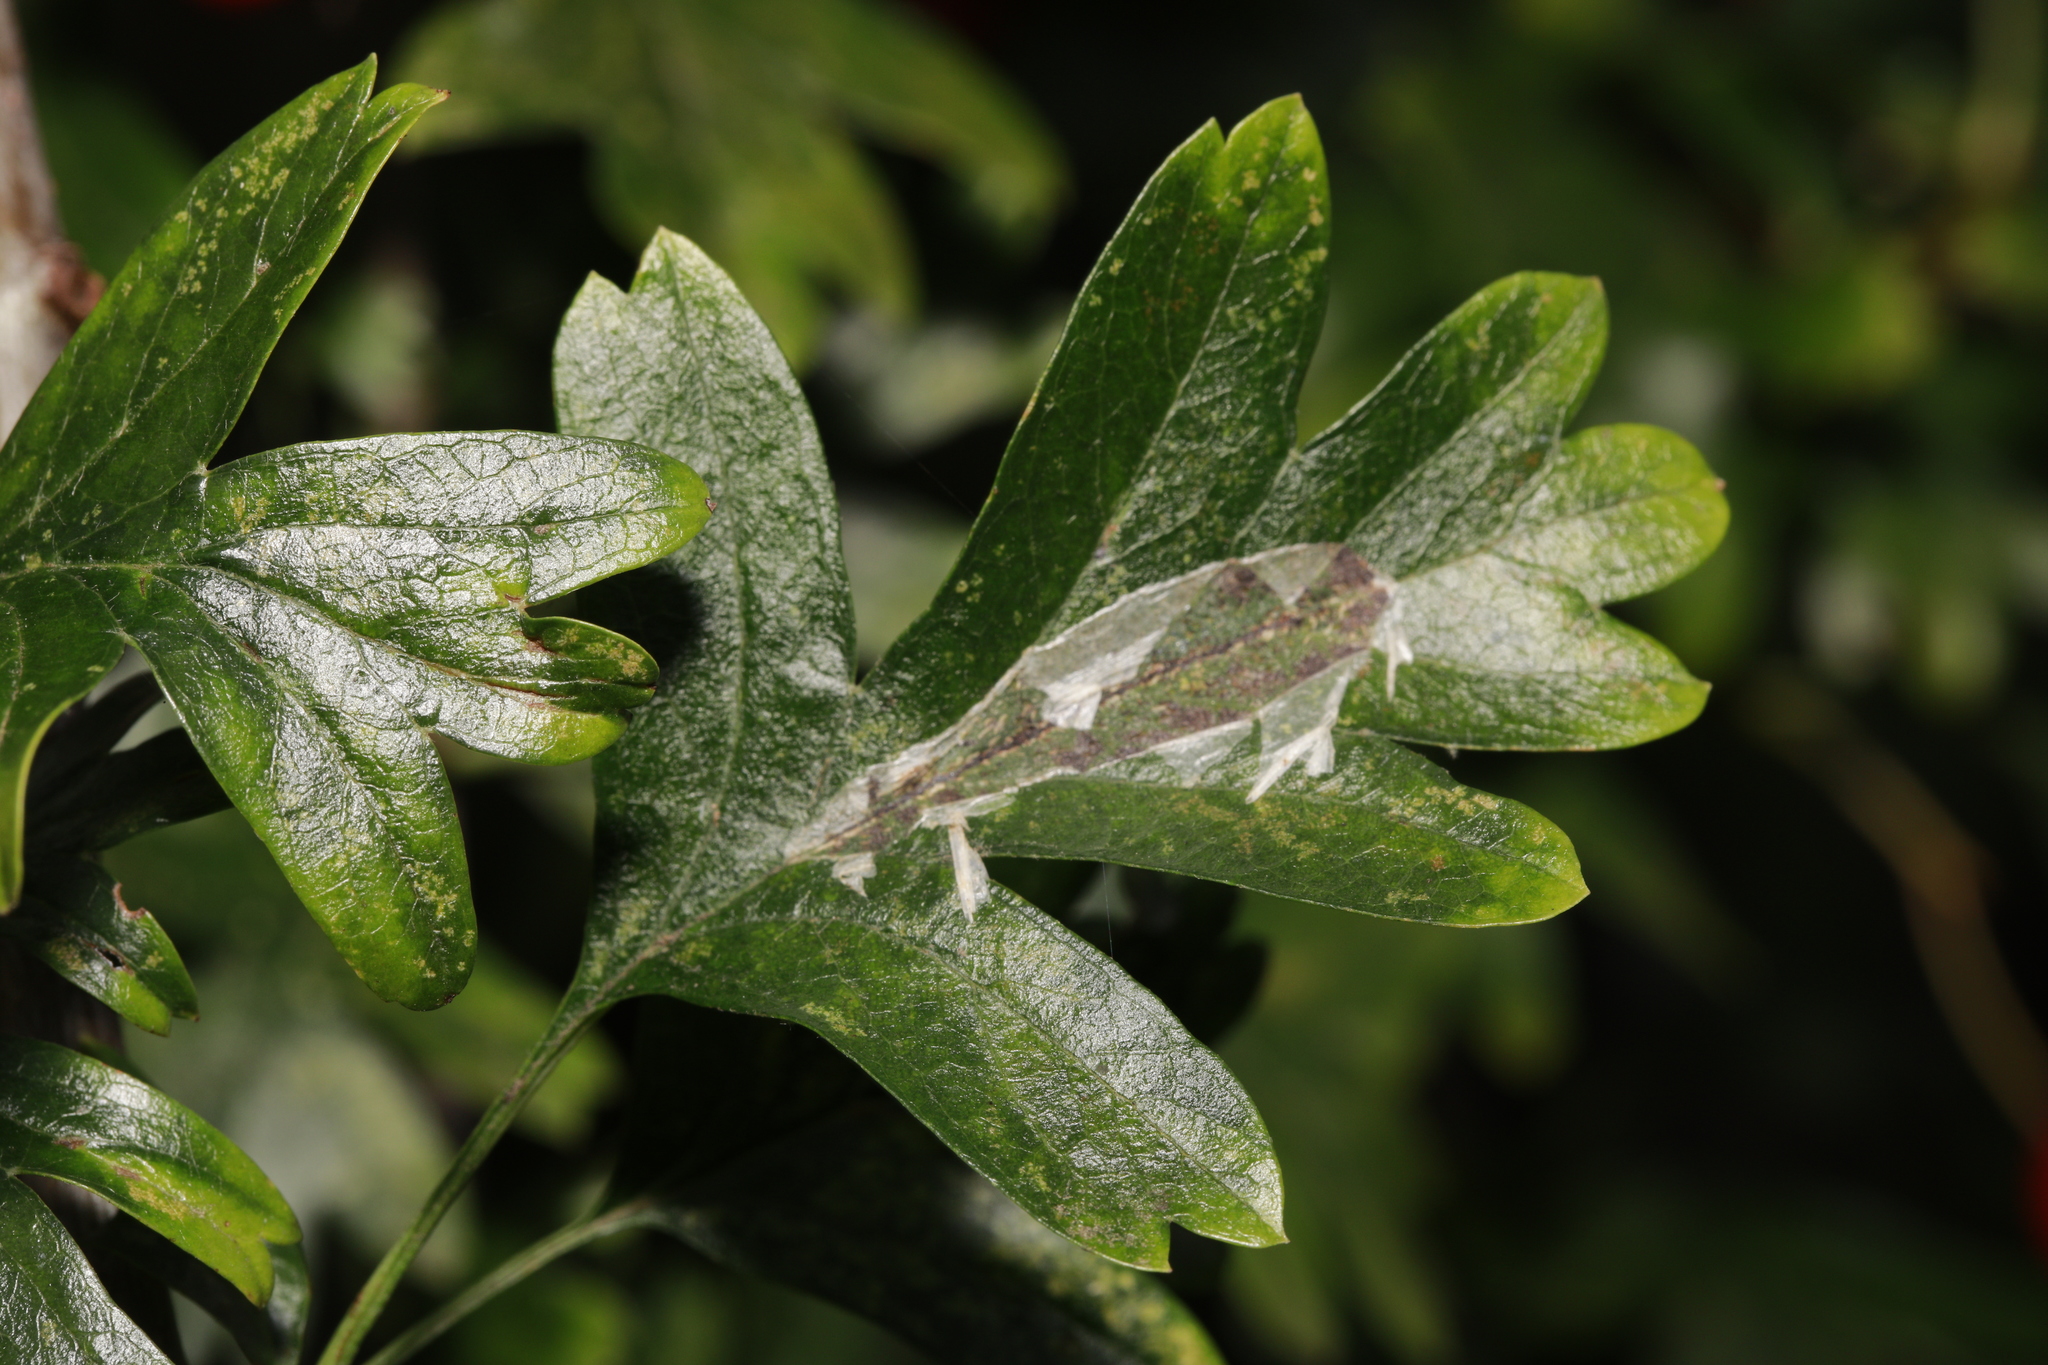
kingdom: Animalia
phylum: Arthropoda
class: Insecta
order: Lepidoptera
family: Gracillariidae
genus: Phyllonorycter
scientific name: Phyllonorycter leucographella
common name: Firethorn leaf-miner
